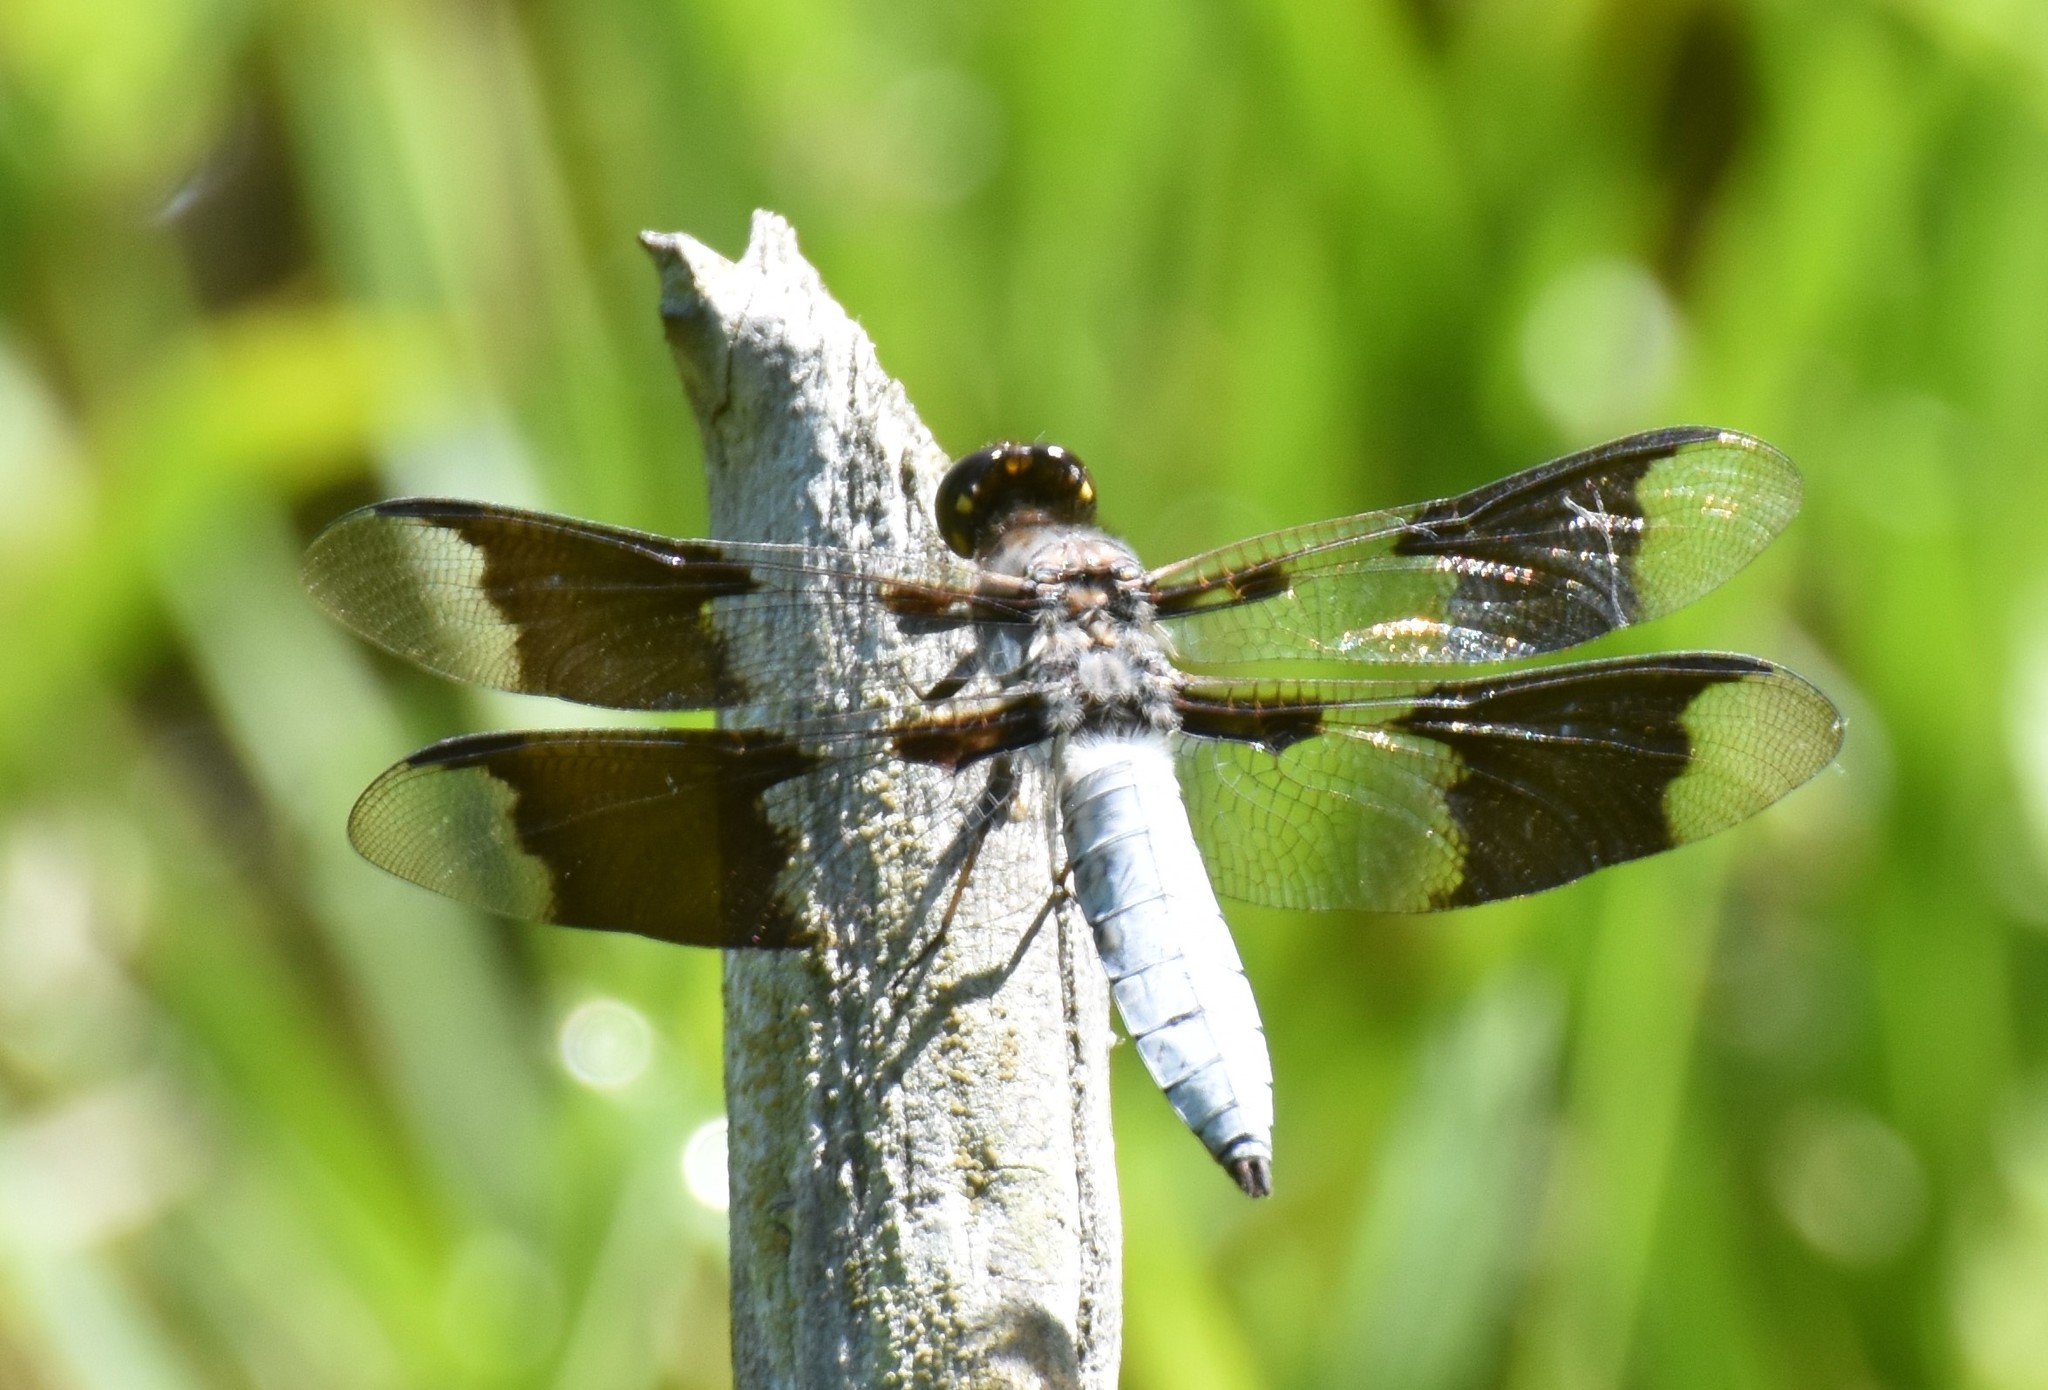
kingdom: Animalia
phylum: Arthropoda
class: Insecta
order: Odonata
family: Libellulidae
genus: Plathemis
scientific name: Plathemis lydia
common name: Common whitetail
